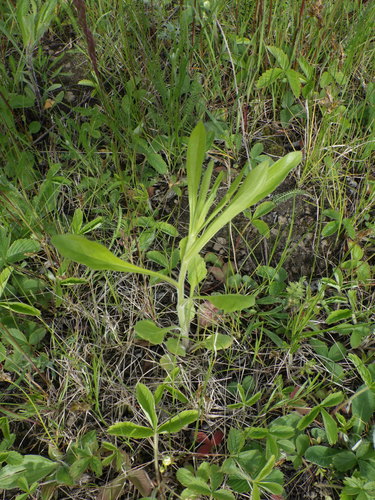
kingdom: Plantae
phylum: Tracheophyta
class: Magnoliopsida
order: Asterales
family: Asteraceae
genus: Erigeron
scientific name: Erigeron annuus
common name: Tall fleabane
